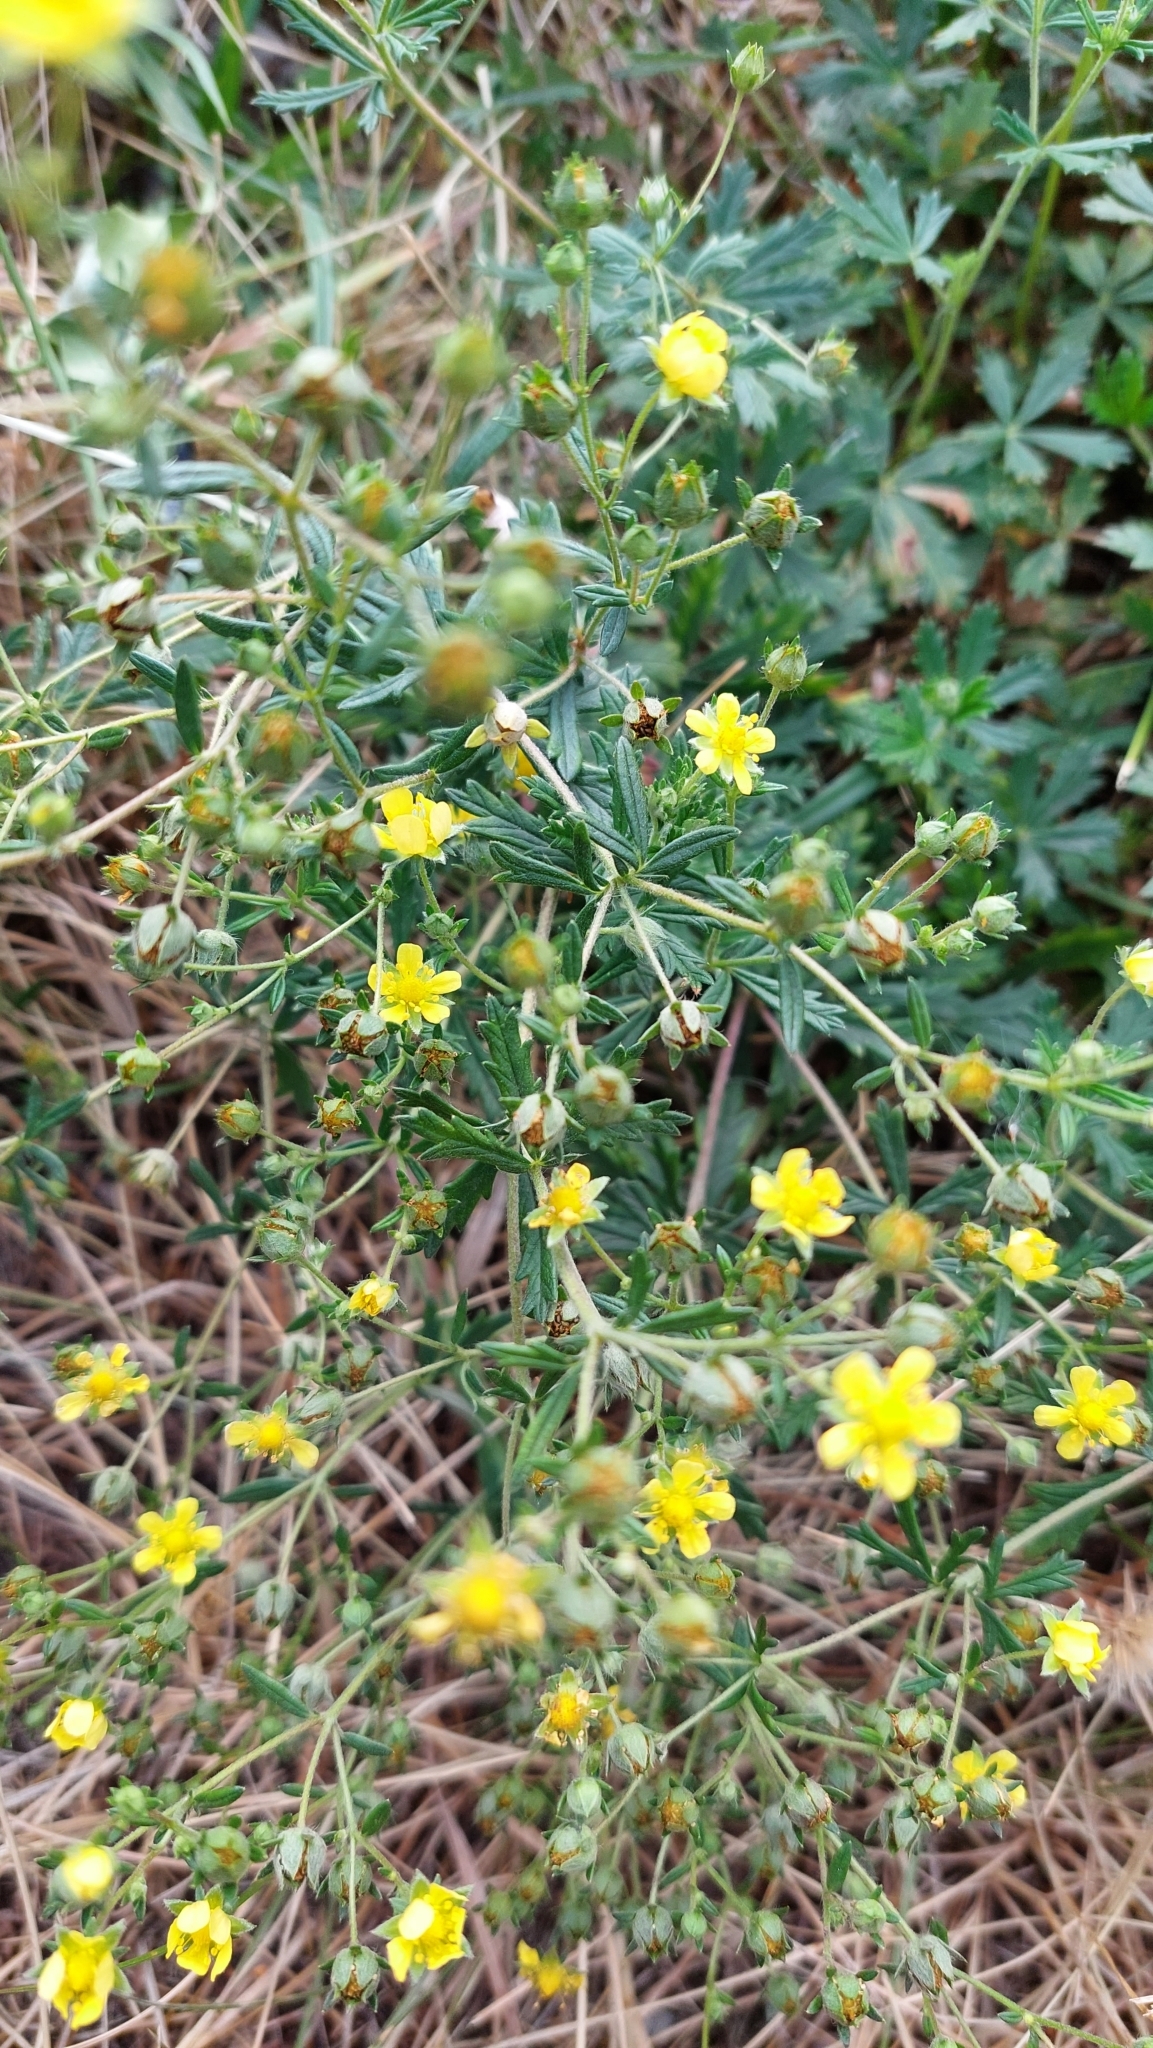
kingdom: Plantae
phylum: Tracheophyta
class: Magnoliopsida
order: Rosales
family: Rosaceae
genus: Potentilla
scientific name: Potentilla argentea
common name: Hoary cinquefoil
